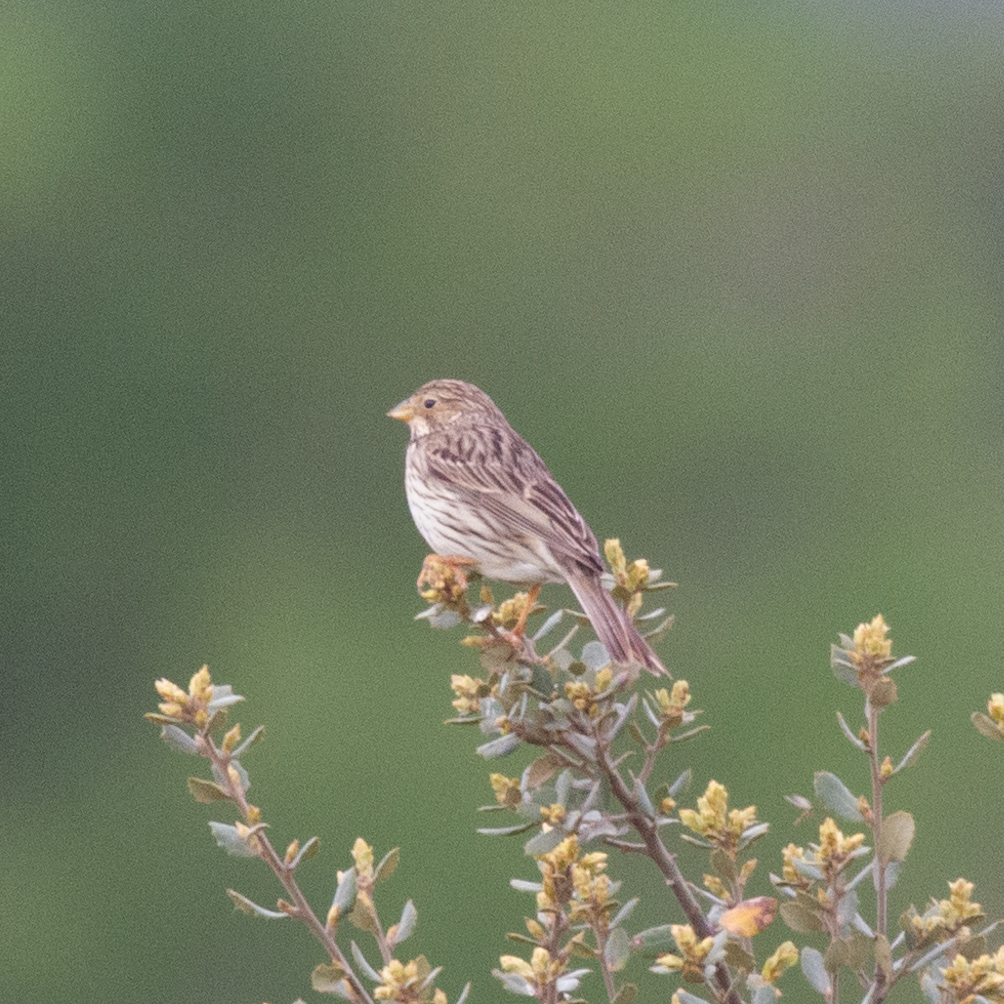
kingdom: Animalia
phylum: Chordata
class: Aves
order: Passeriformes
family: Emberizidae
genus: Emberiza
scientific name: Emberiza calandra
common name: Corn bunting
